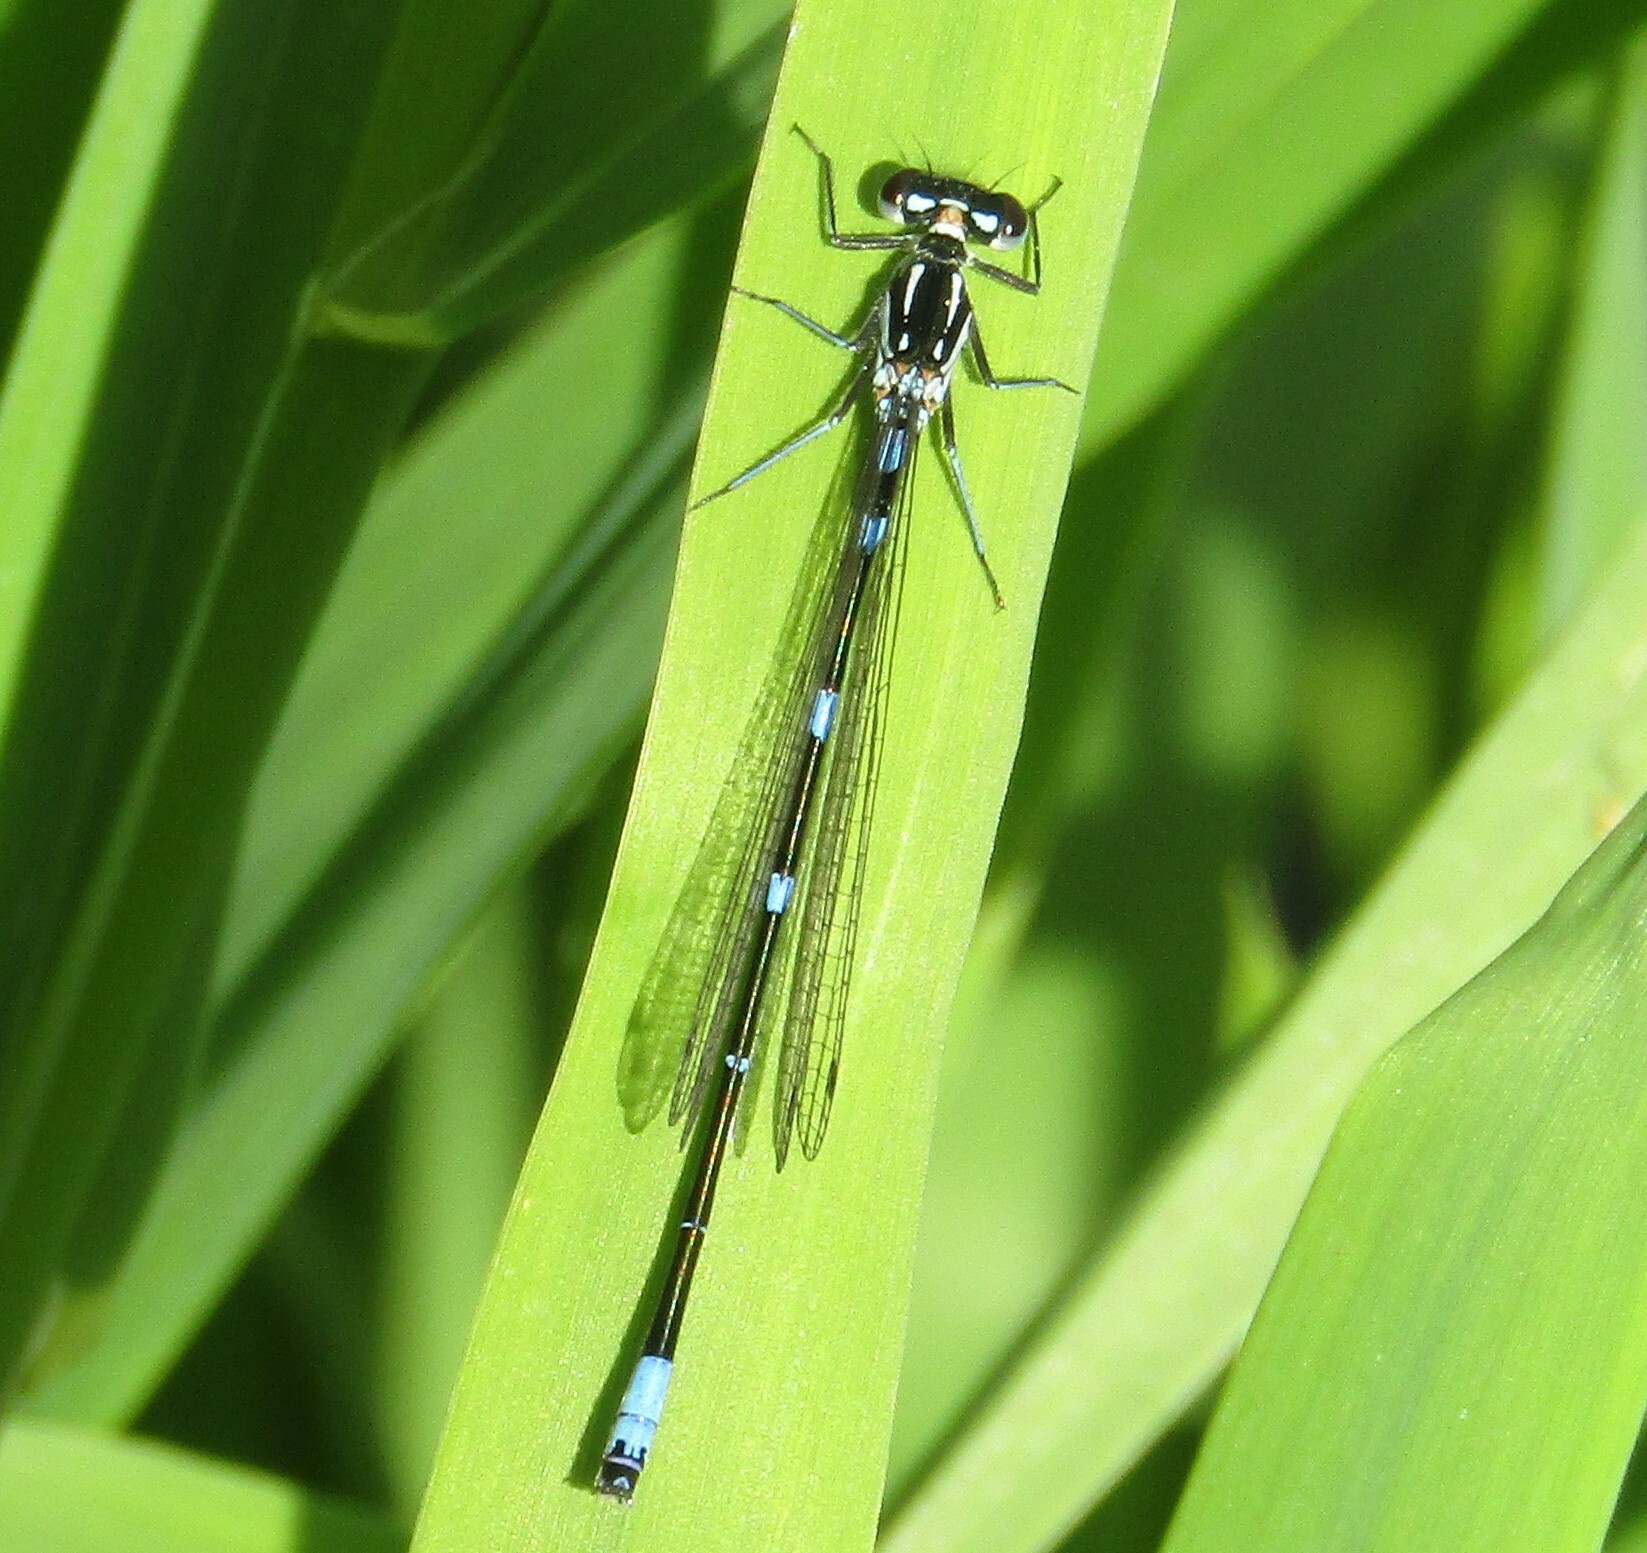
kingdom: Animalia
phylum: Arthropoda
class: Insecta
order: Odonata
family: Coenagrionidae
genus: Coenagrion
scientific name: Coenagrion pulchellum
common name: Variable bluet
